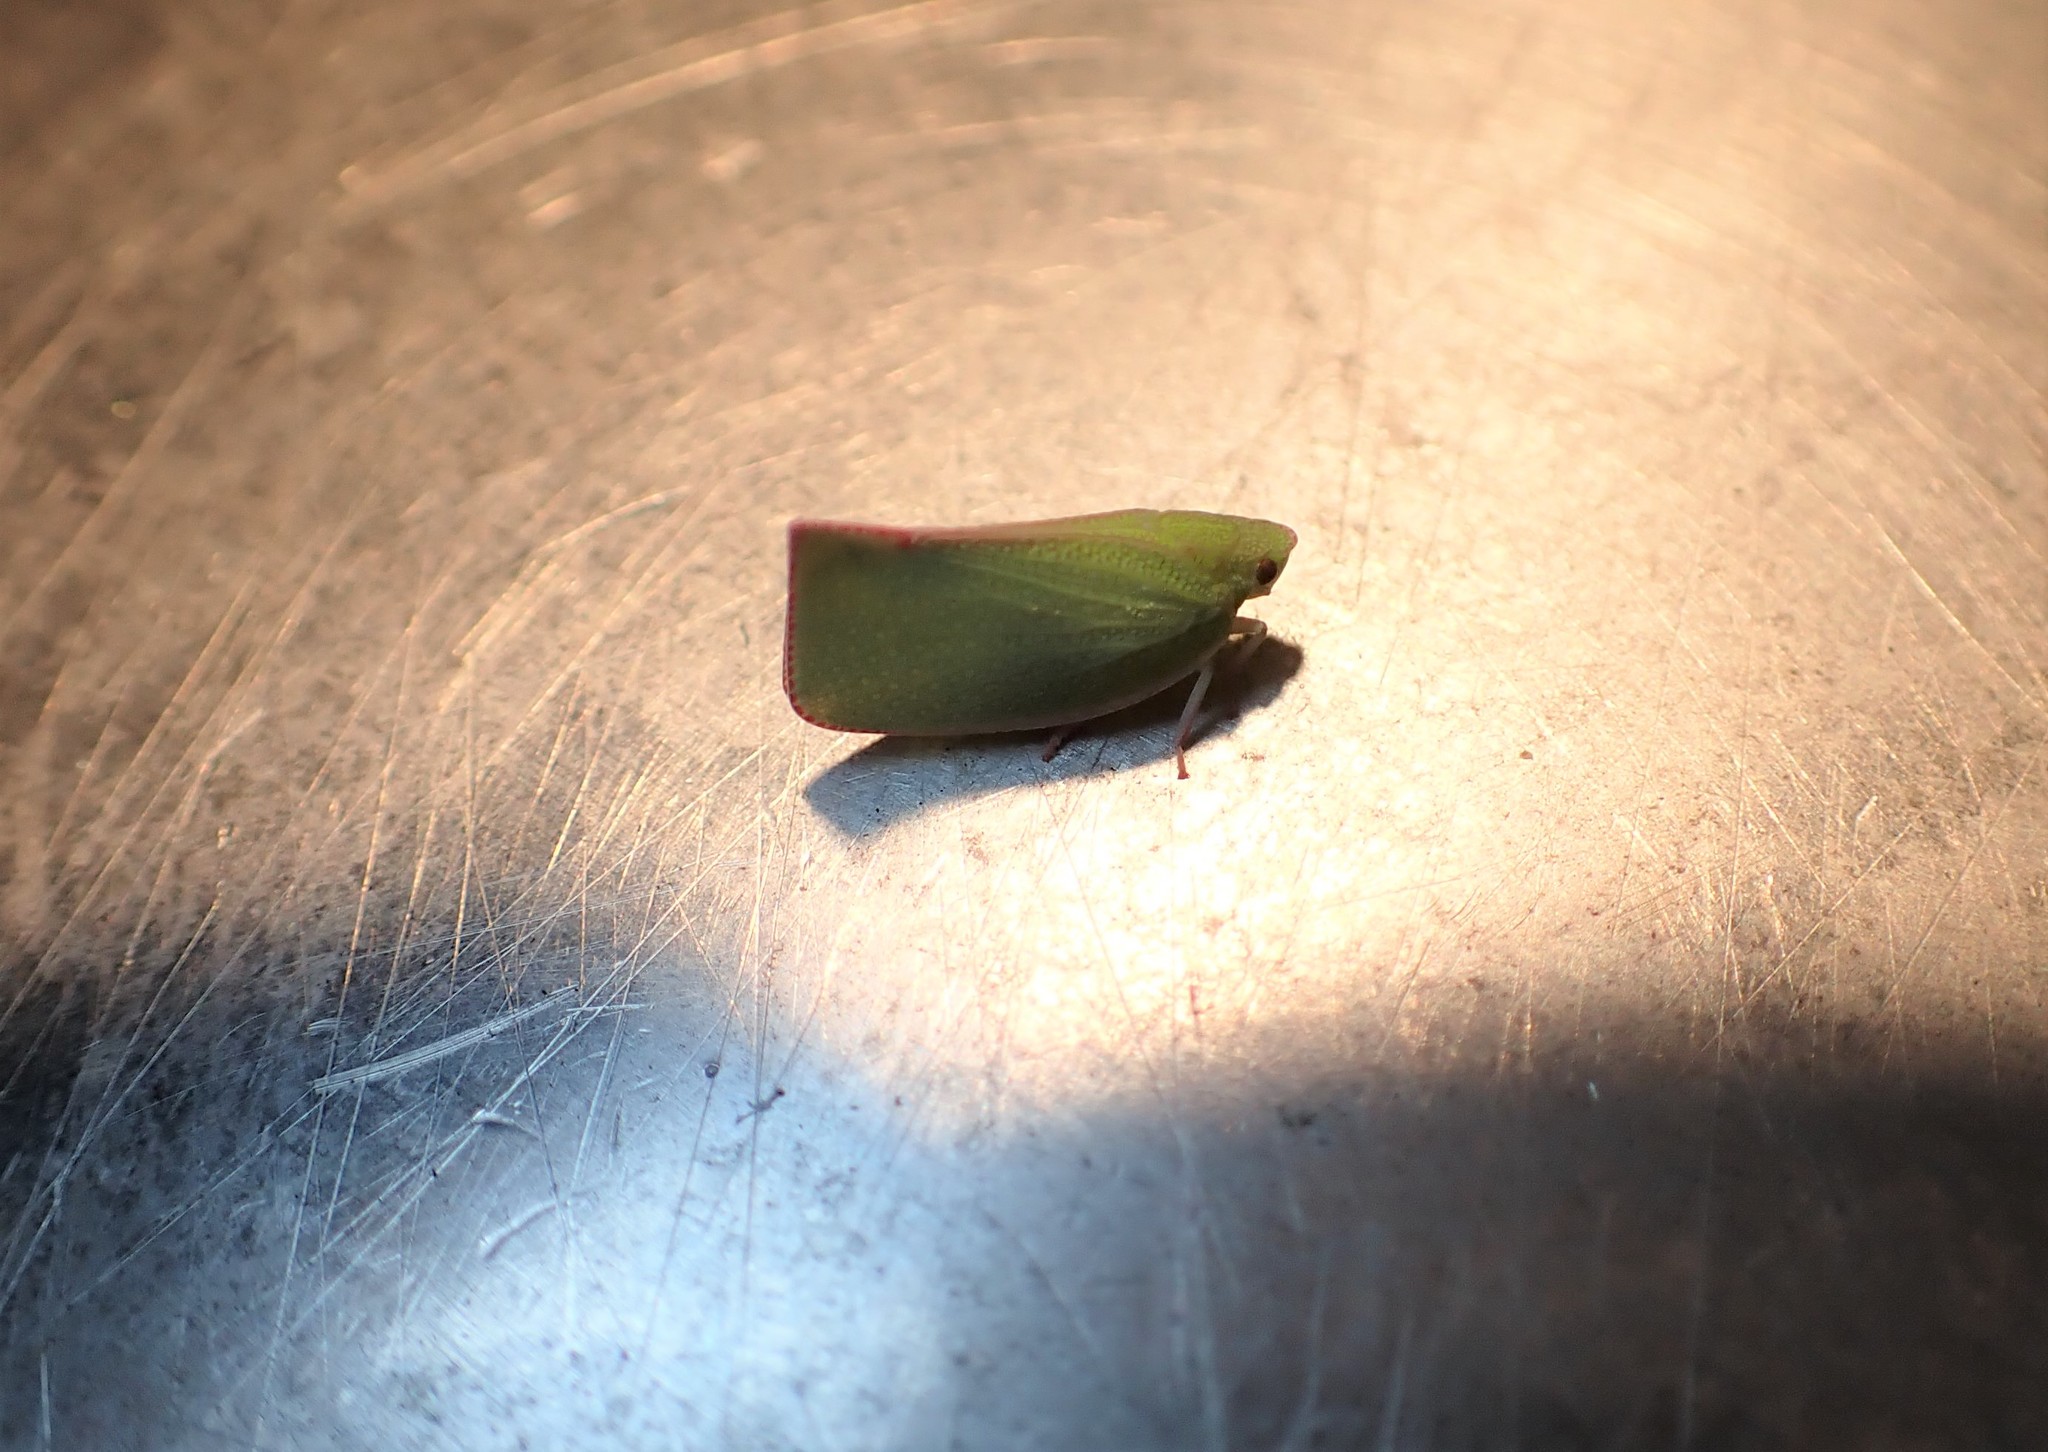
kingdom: Animalia
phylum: Arthropoda
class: Insecta
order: Hemiptera
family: Flatidae
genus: Siphanta
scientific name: Siphanta acuta
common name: Torpedo bug
